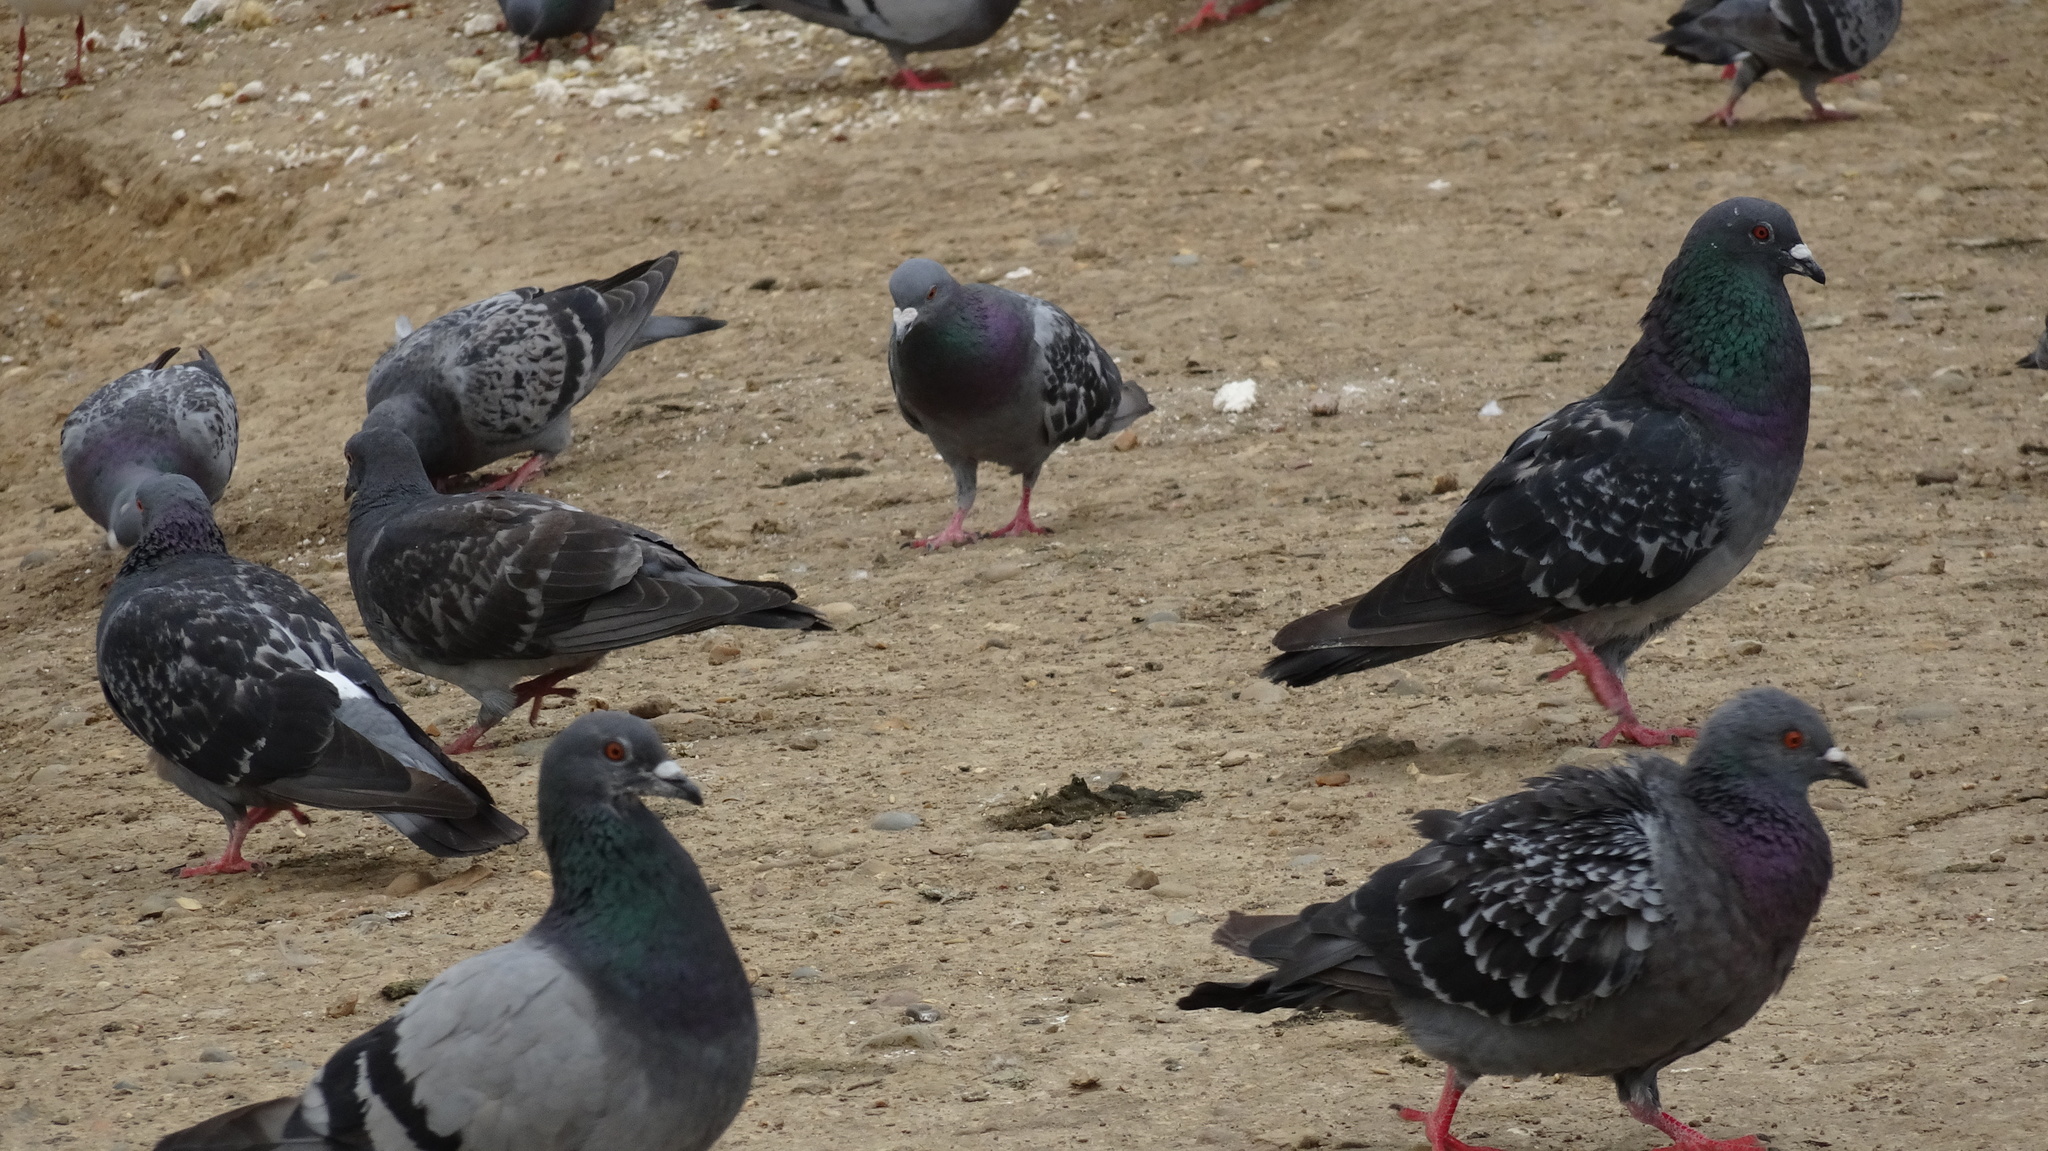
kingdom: Animalia
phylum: Chordata
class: Aves
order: Columbiformes
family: Columbidae
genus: Columba
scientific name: Columba livia
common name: Rock pigeon
